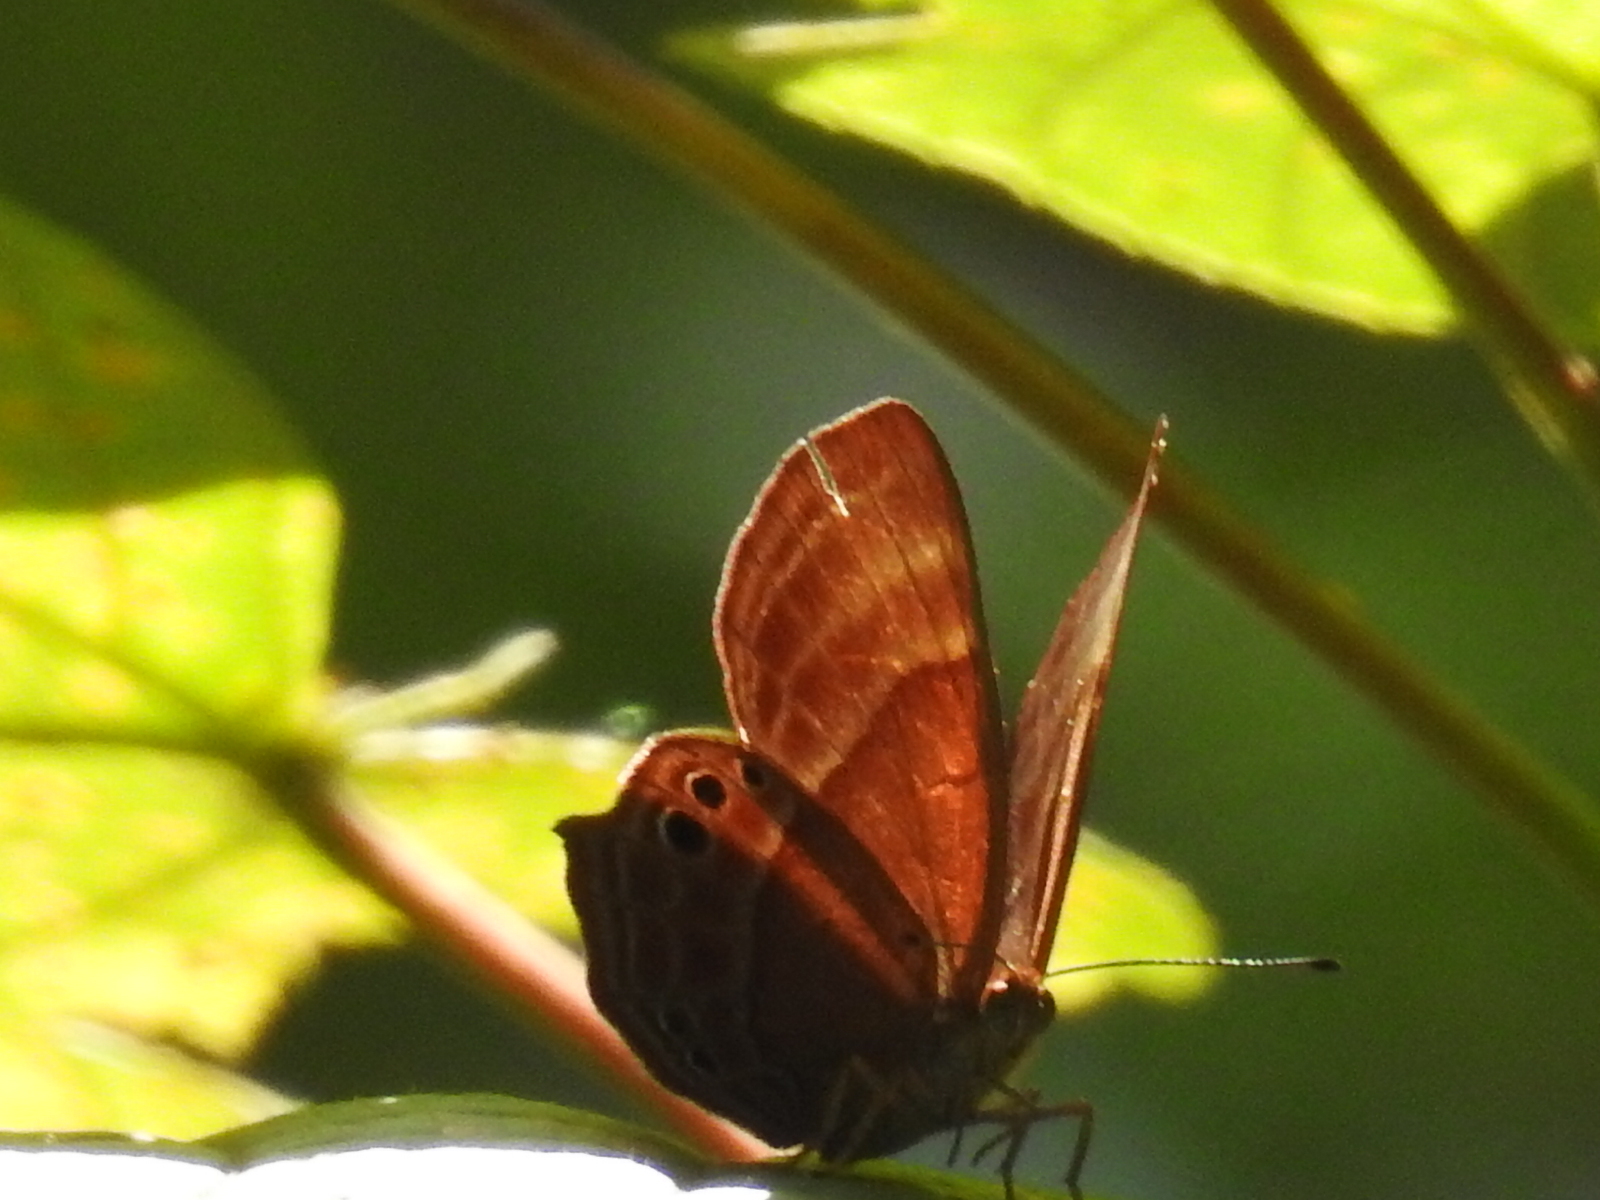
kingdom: Animalia
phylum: Arthropoda
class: Insecta
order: Lepidoptera
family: Lycaenidae
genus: Abisara
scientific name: Abisara echeria
